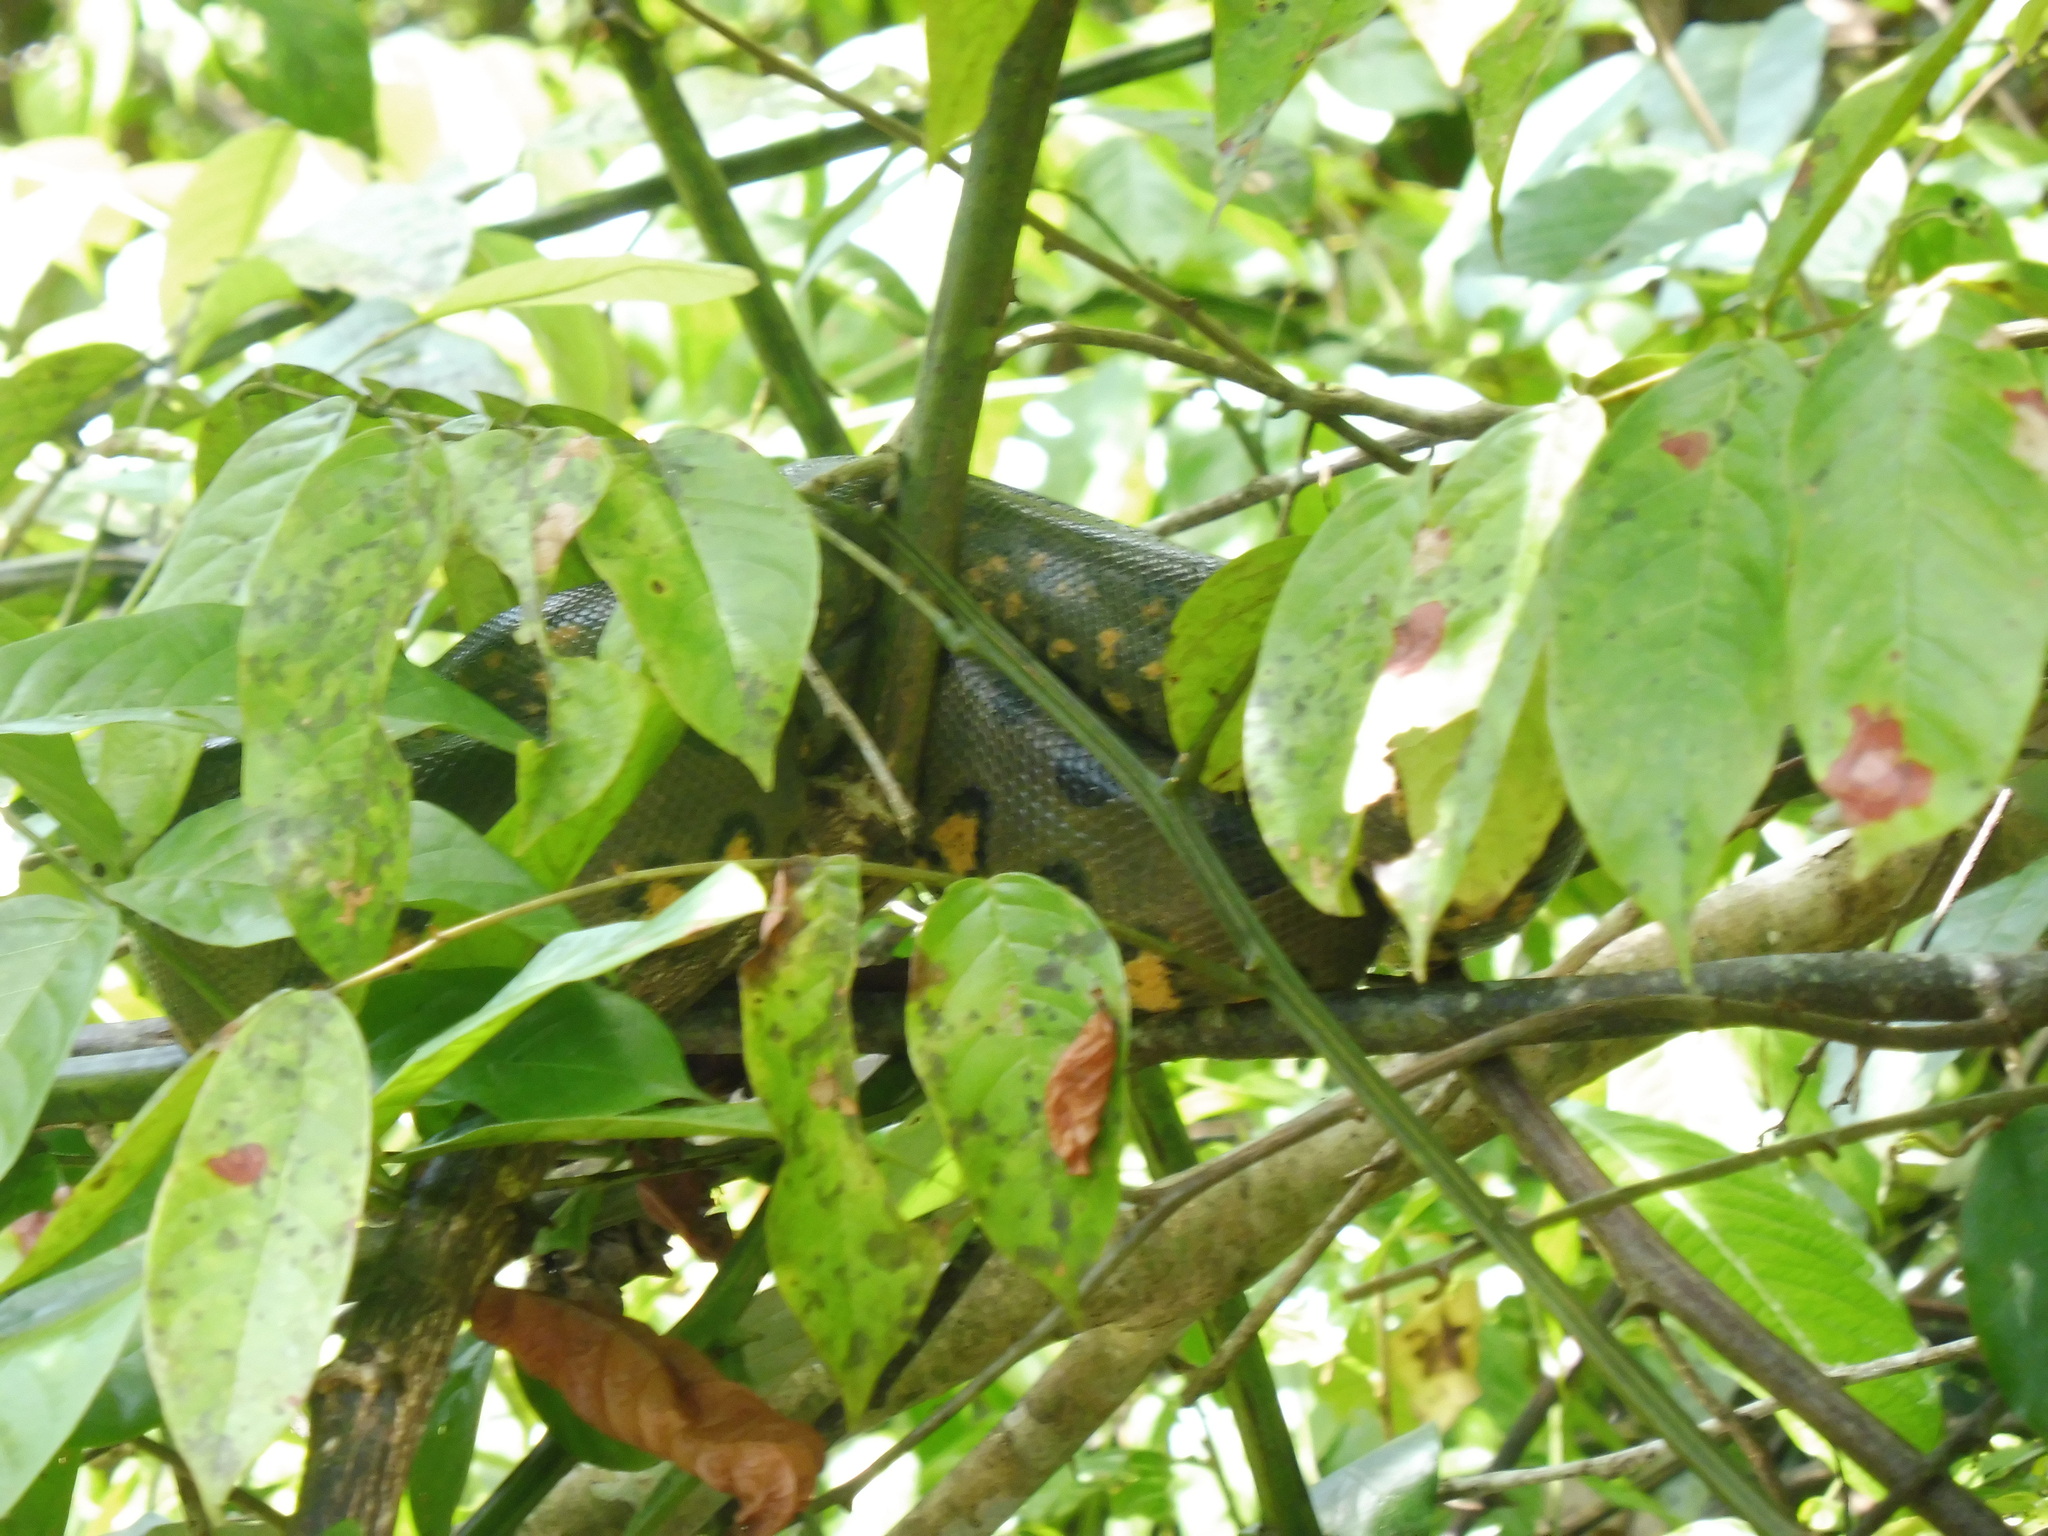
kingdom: Animalia
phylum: Chordata
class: Squamata
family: Boidae
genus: Eunectes
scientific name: Eunectes murinus
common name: Anaconda
